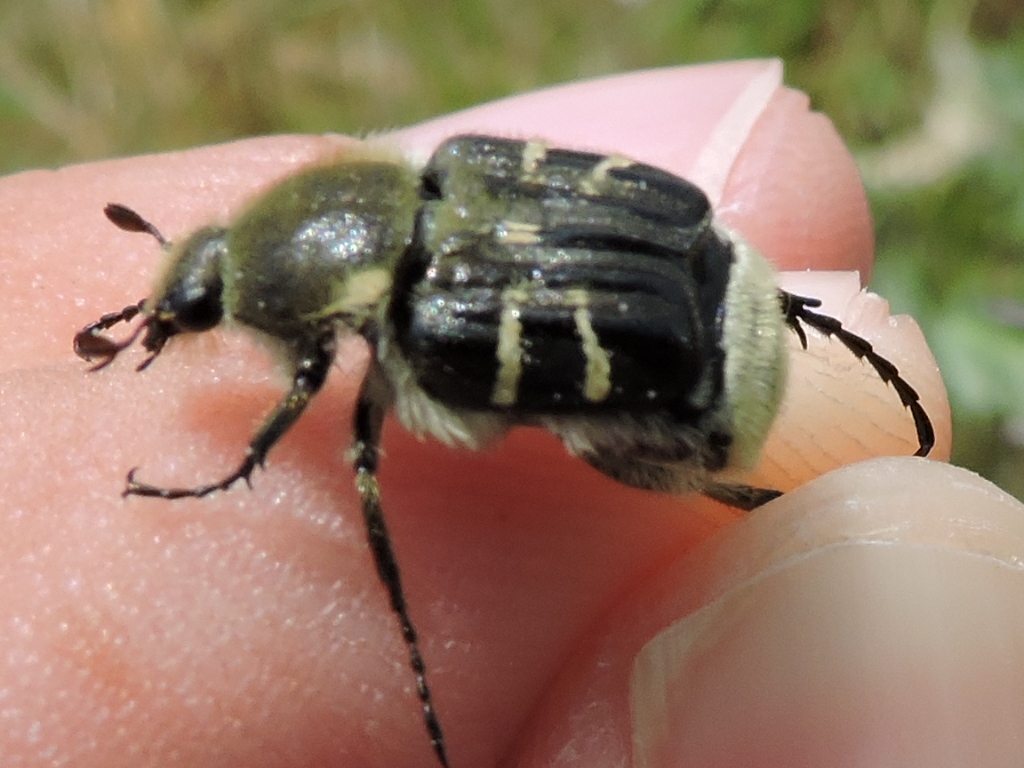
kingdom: Animalia
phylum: Arthropoda
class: Insecta
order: Coleoptera
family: Scarabaeidae
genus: Trichiotinus
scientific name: Trichiotinus texanus
